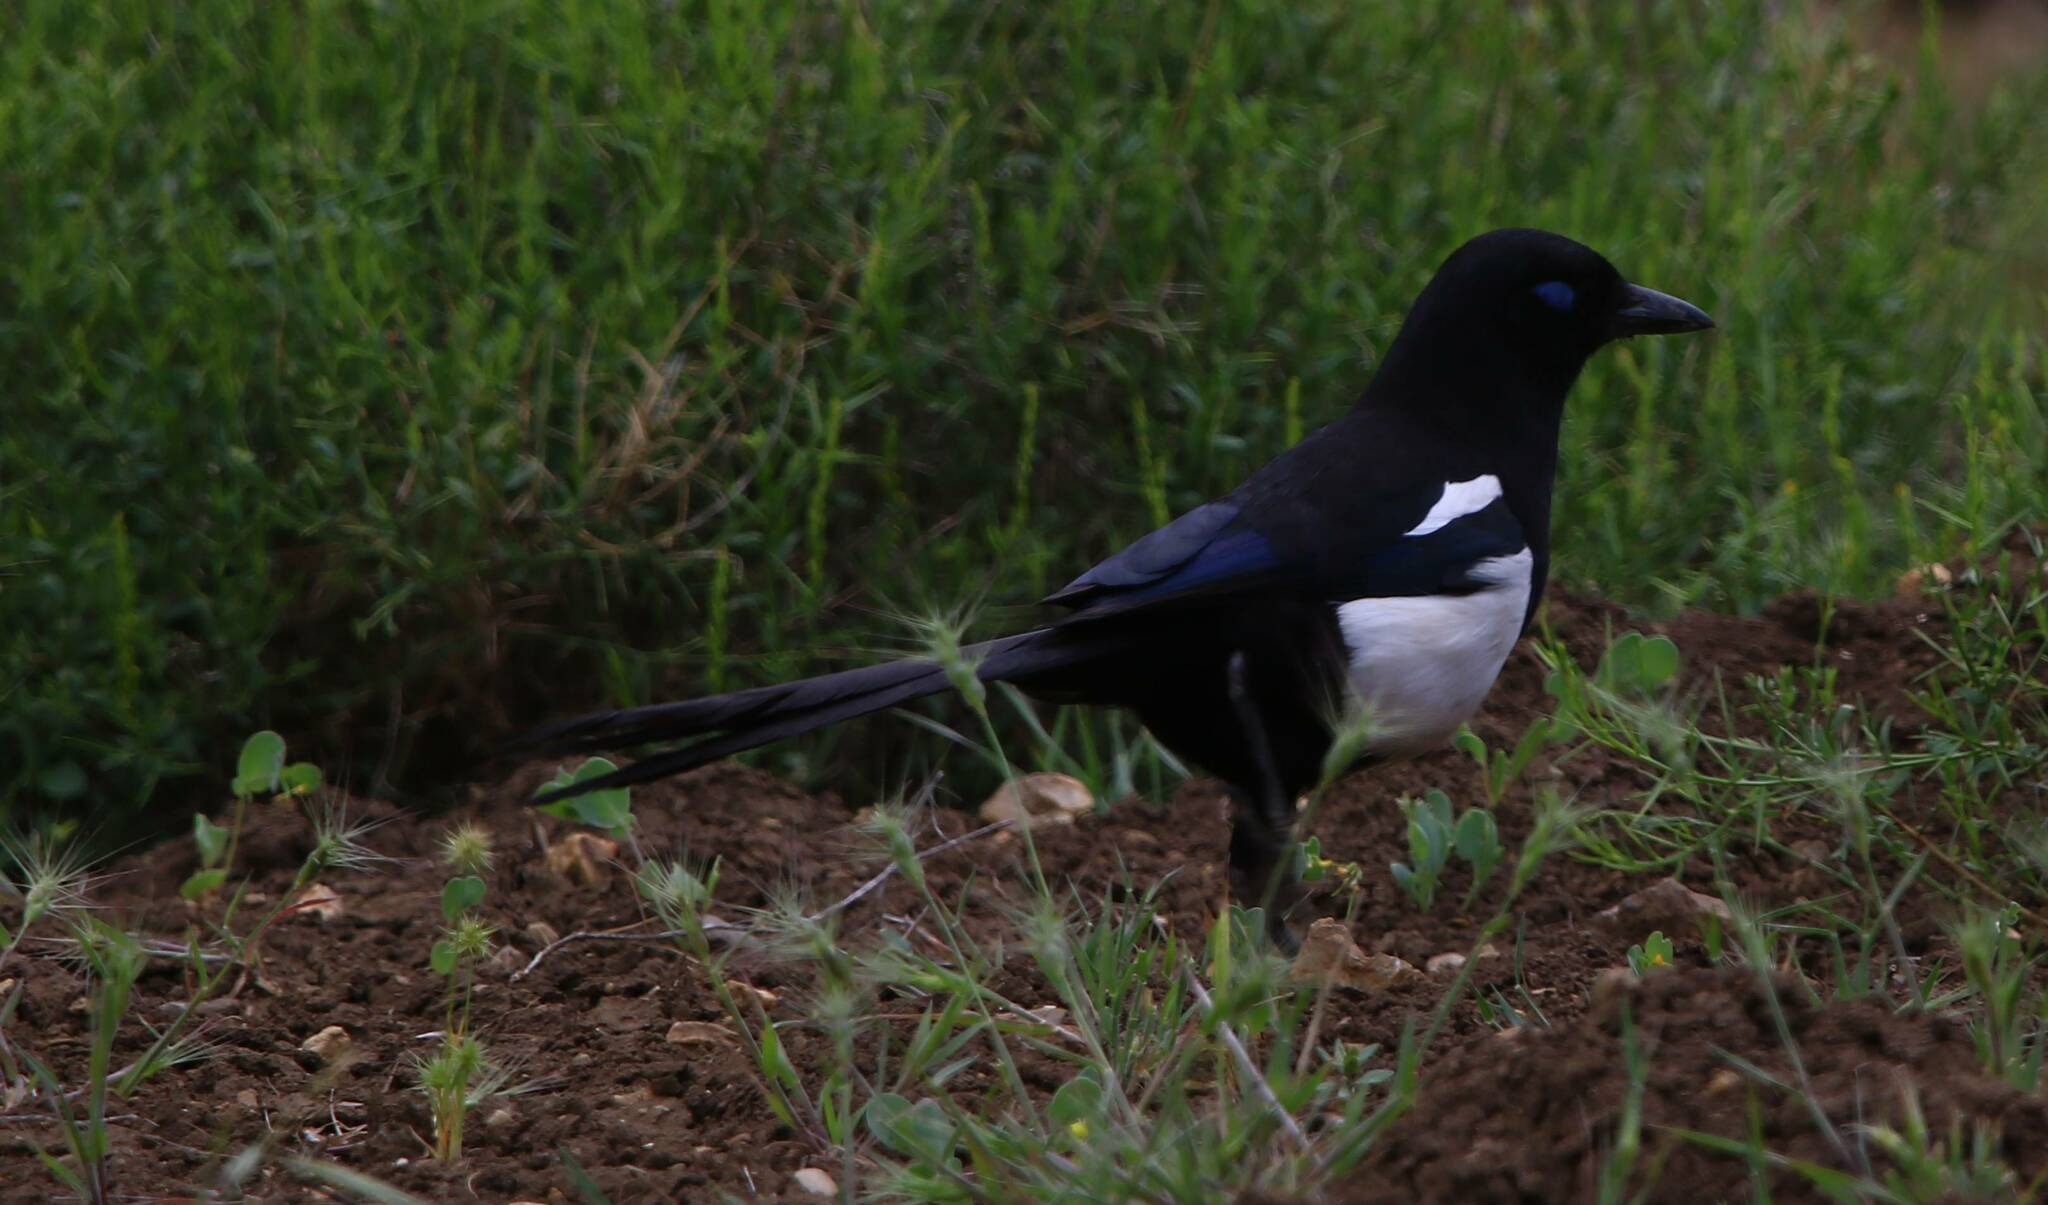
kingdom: Animalia
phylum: Chordata
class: Aves
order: Passeriformes
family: Corvidae
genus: Pica
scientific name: Pica mauritanica
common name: Maghreb magpie
